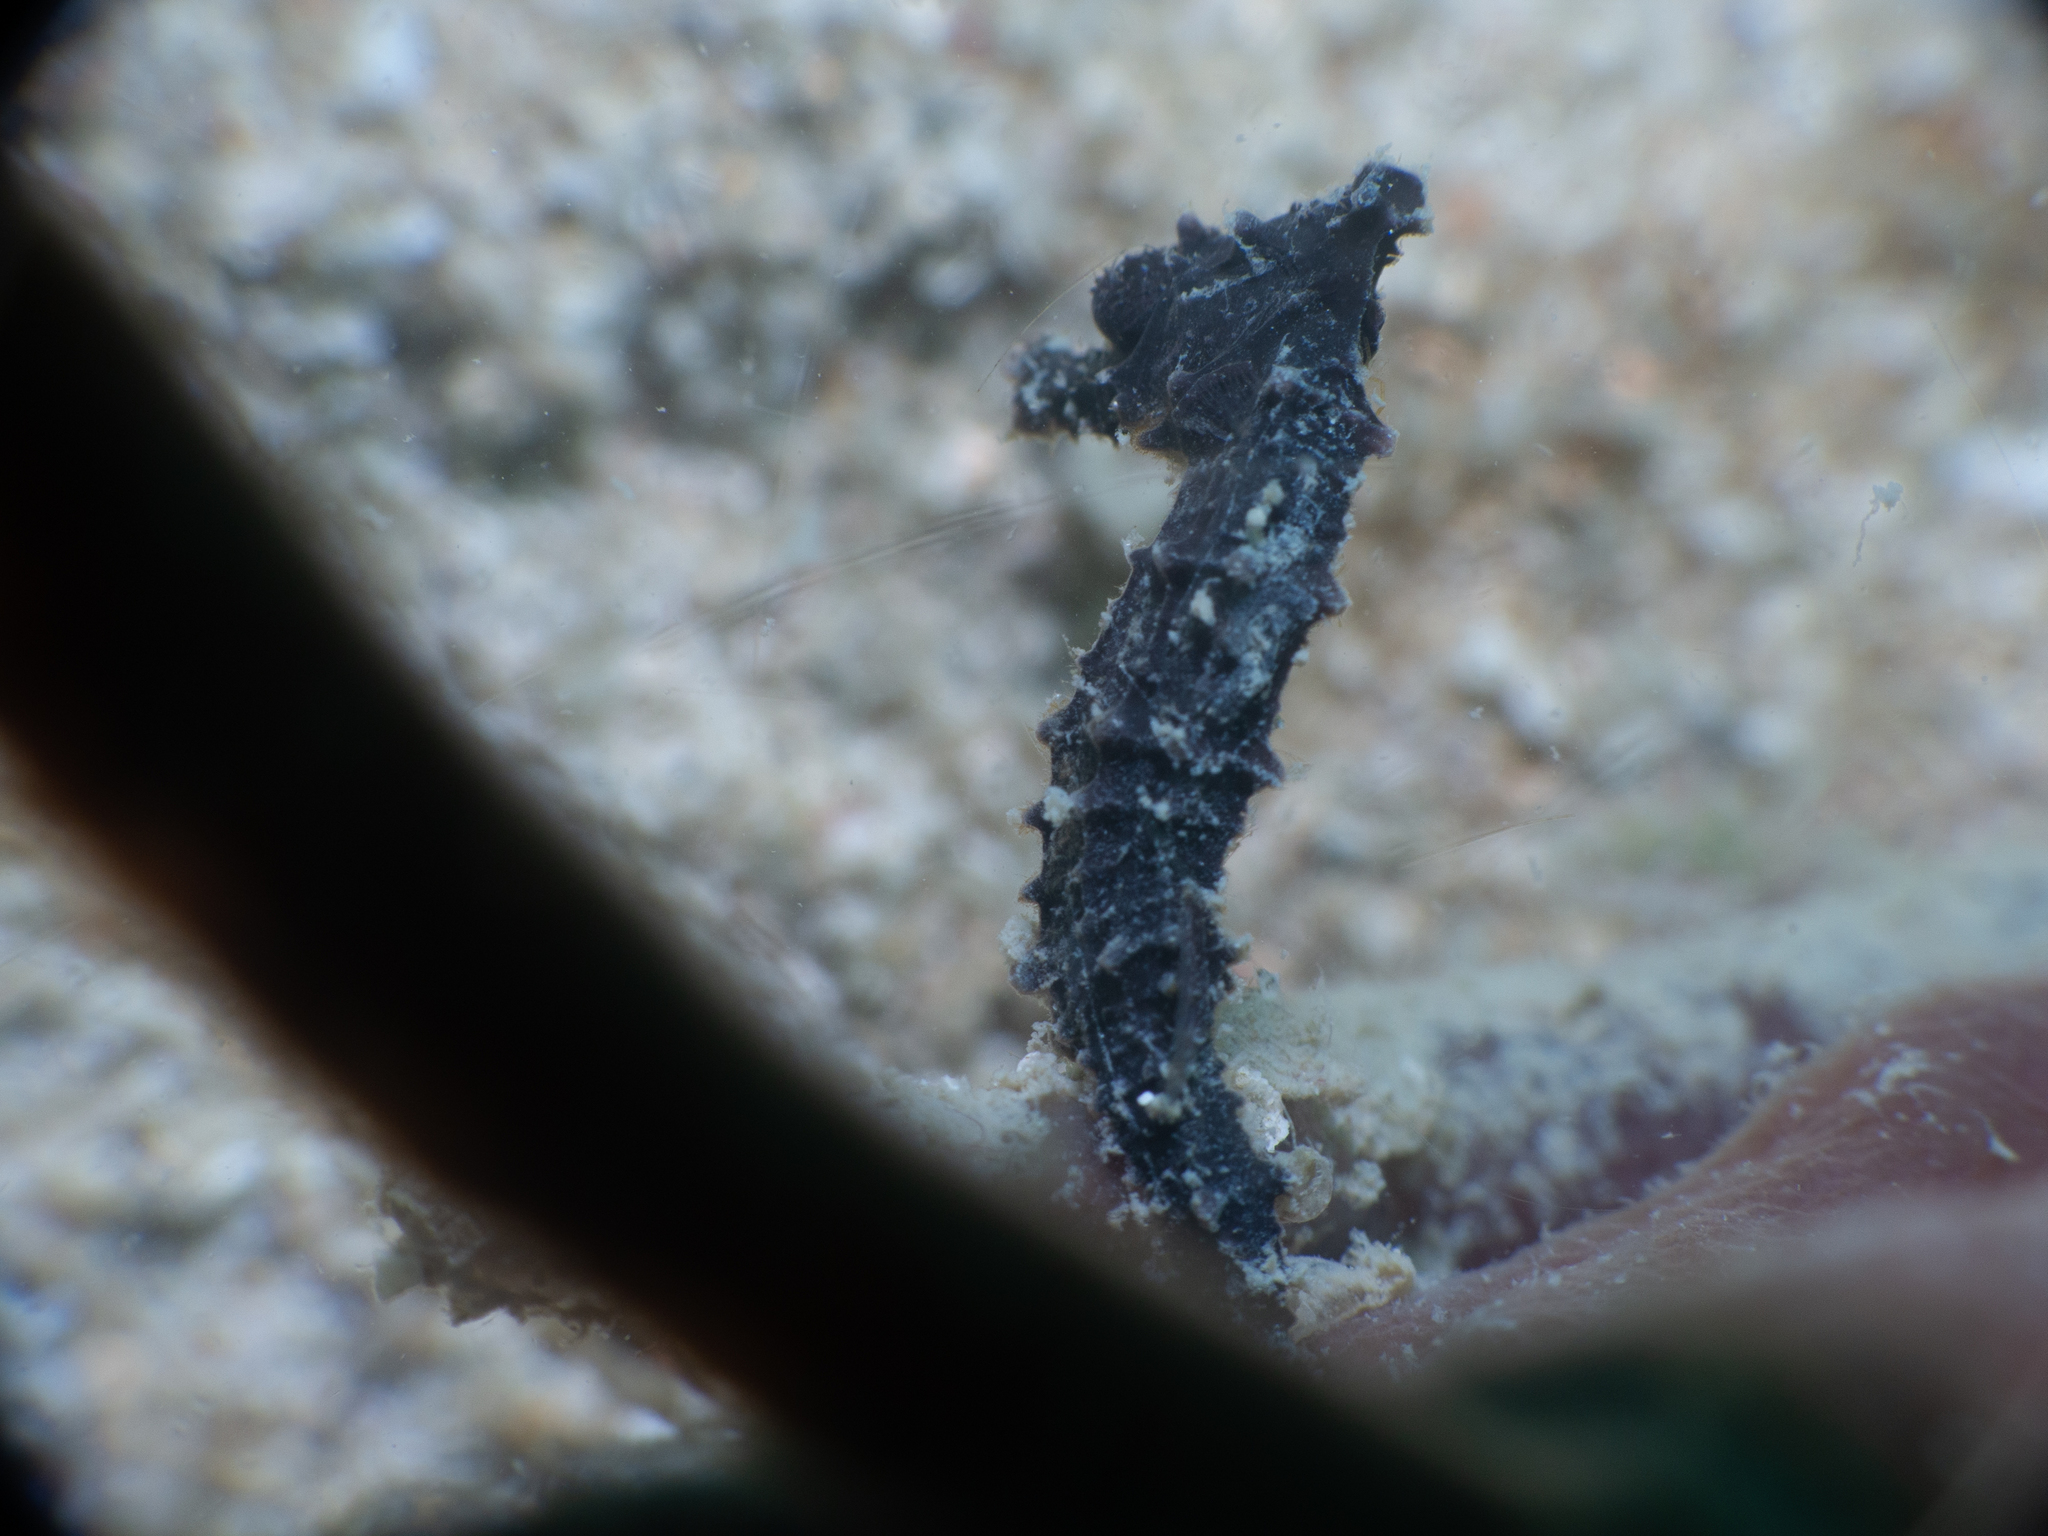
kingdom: Animalia
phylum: Chordata
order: Syngnathiformes
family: Syngnathidae
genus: Hippocampus
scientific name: Hippocampus kuda
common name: Spotted seahorse
